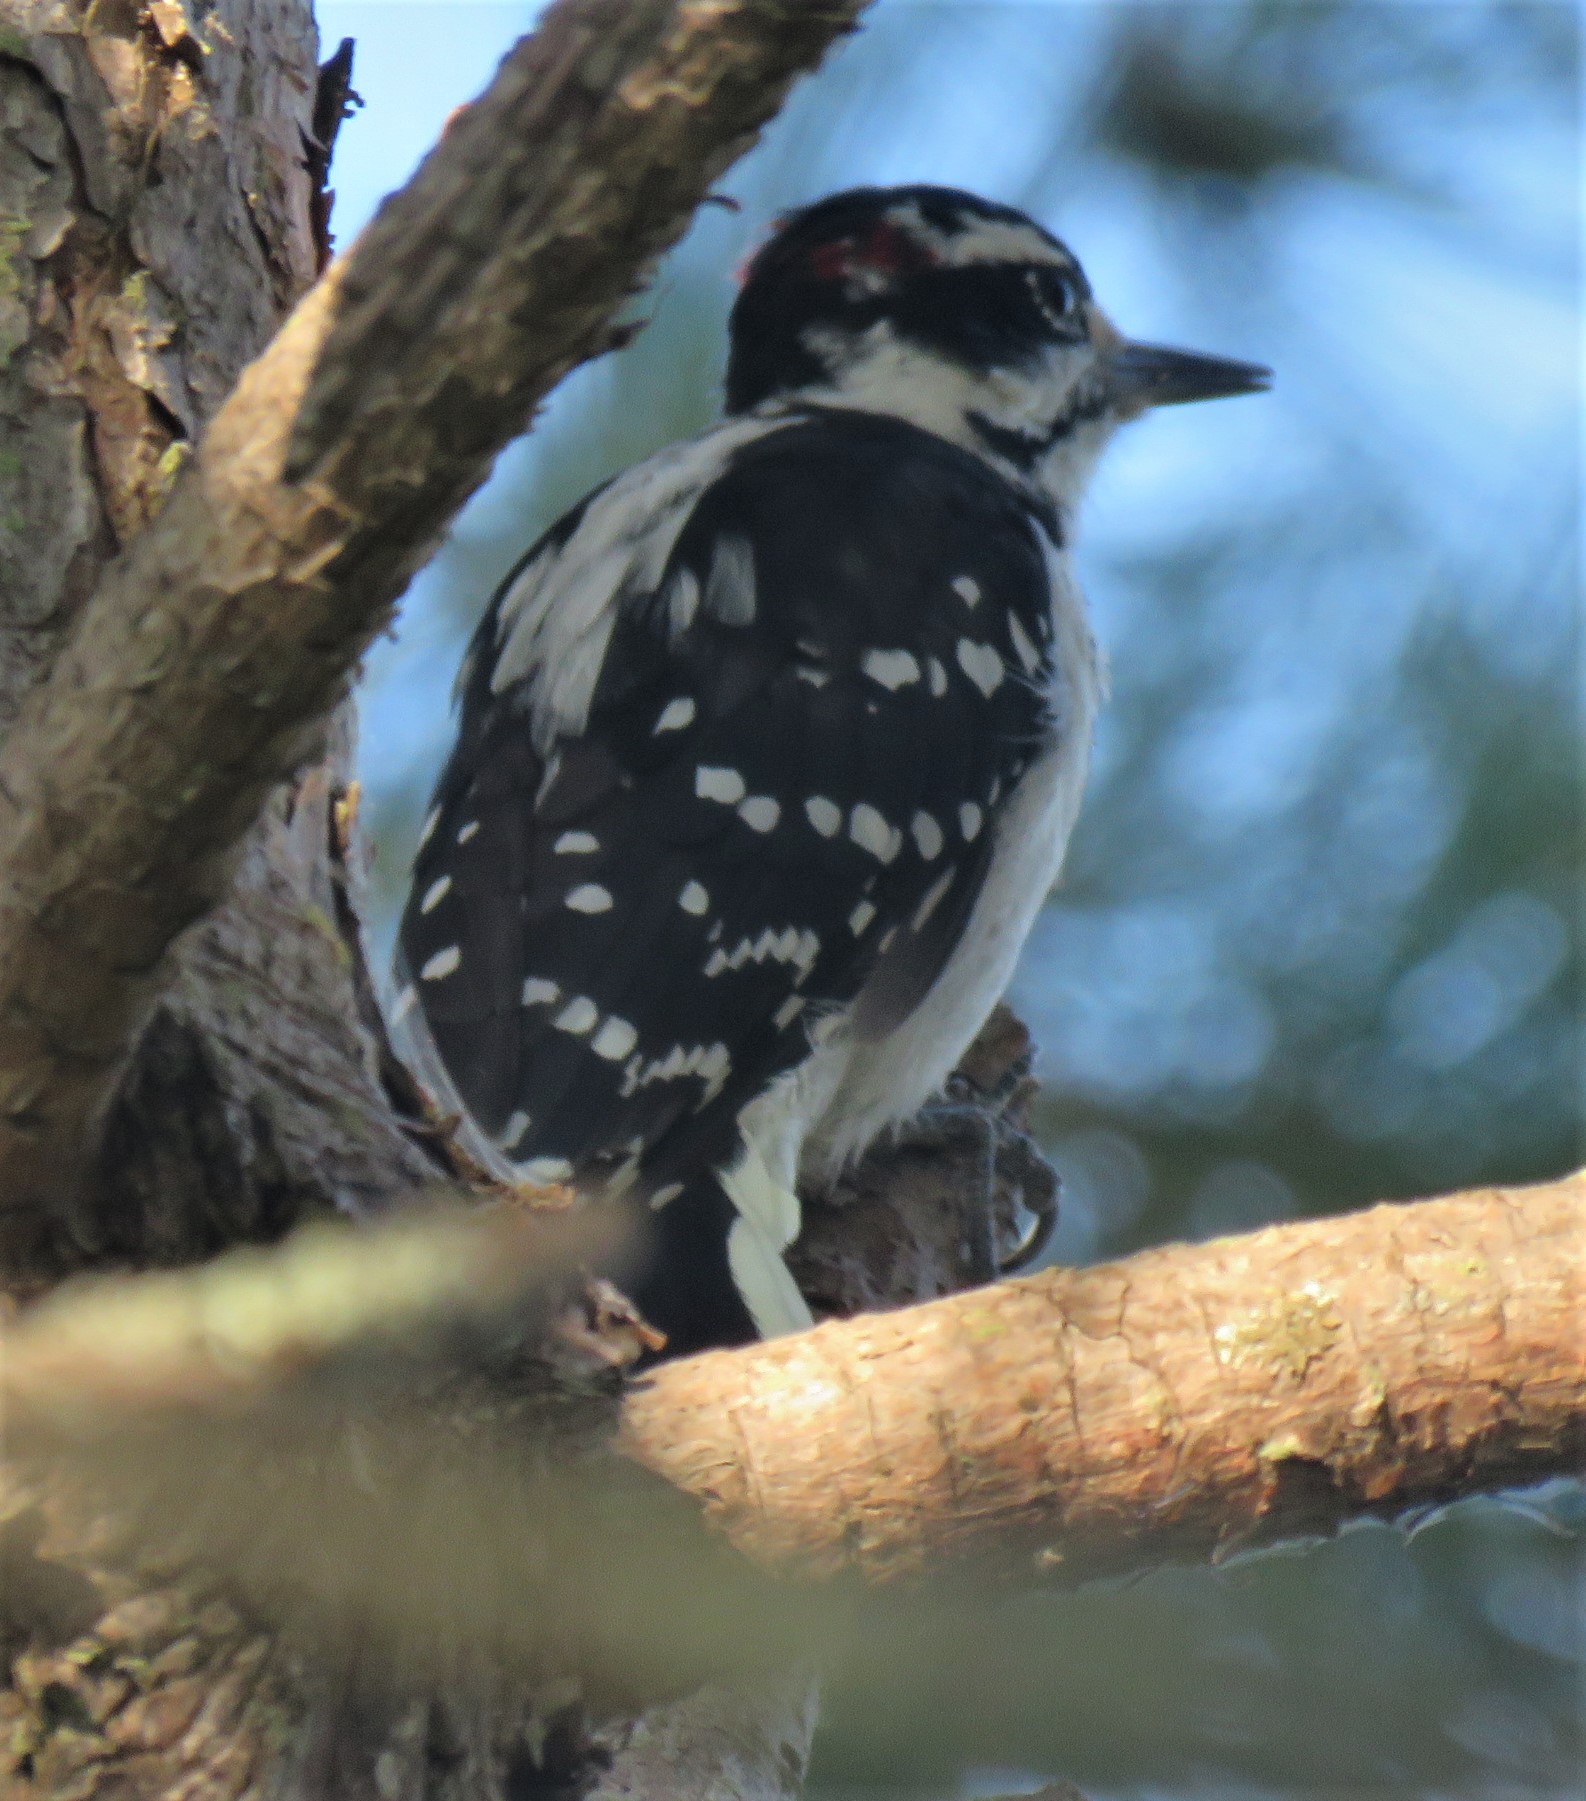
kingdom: Animalia
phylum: Chordata
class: Aves
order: Piciformes
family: Picidae
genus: Leuconotopicus
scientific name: Leuconotopicus villosus
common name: Hairy woodpecker
